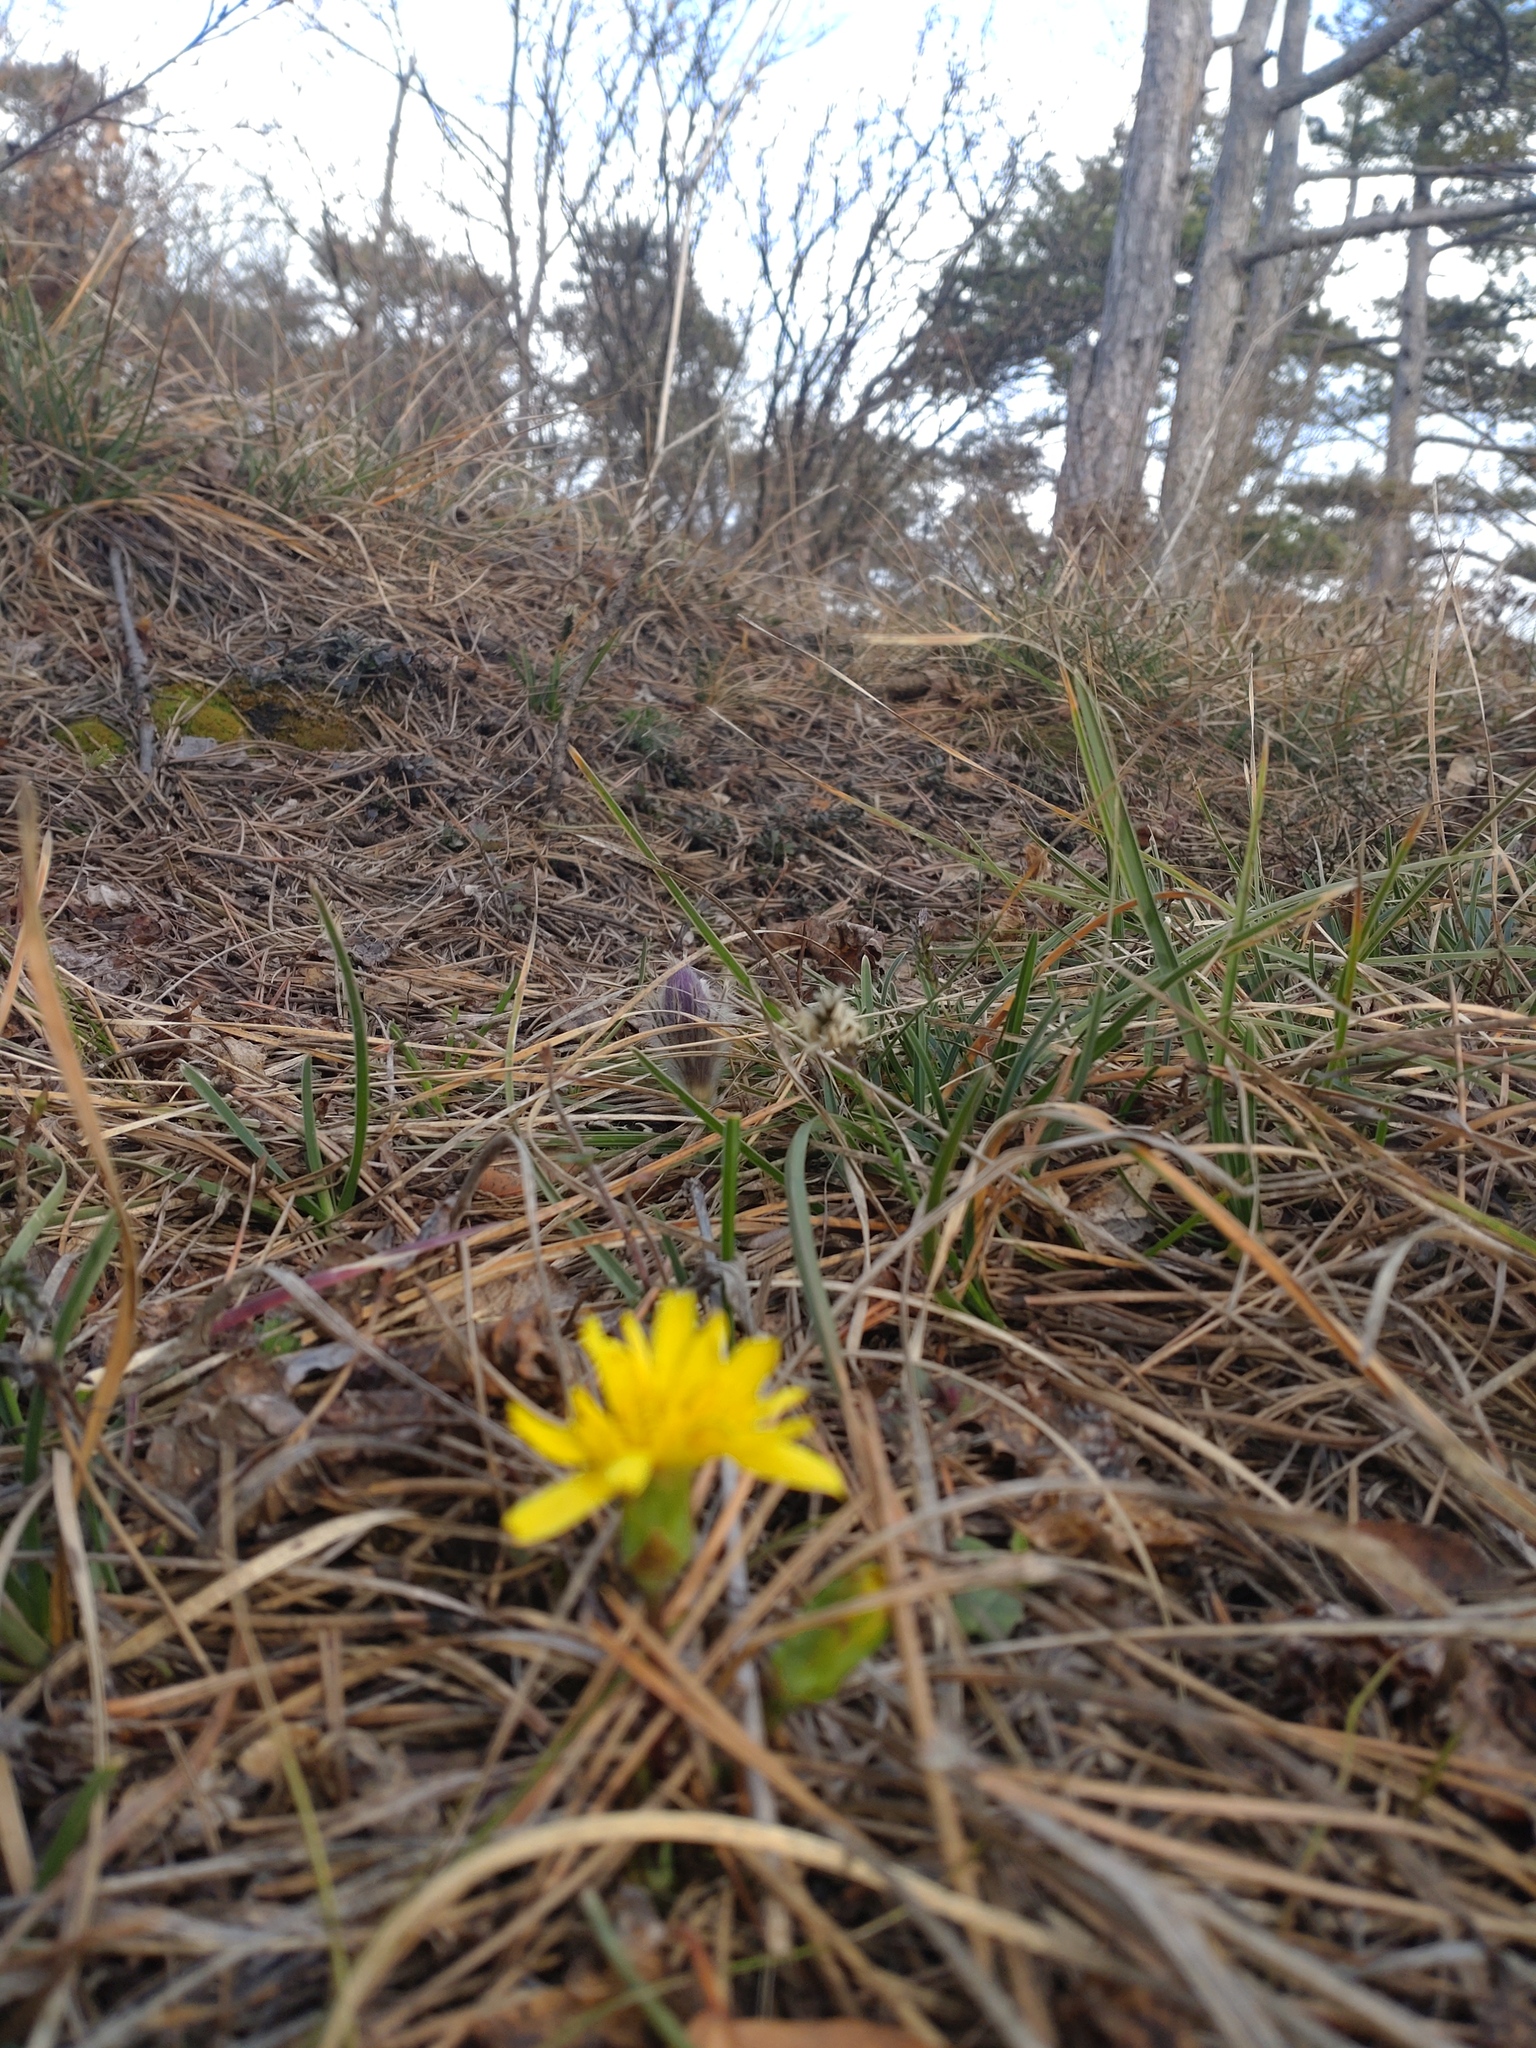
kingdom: Plantae
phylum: Tracheophyta
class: Magnoliopsida
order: Asterales
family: Asteraceae
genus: Takhtajaniantha
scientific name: Takhtajaniantha austriaca
